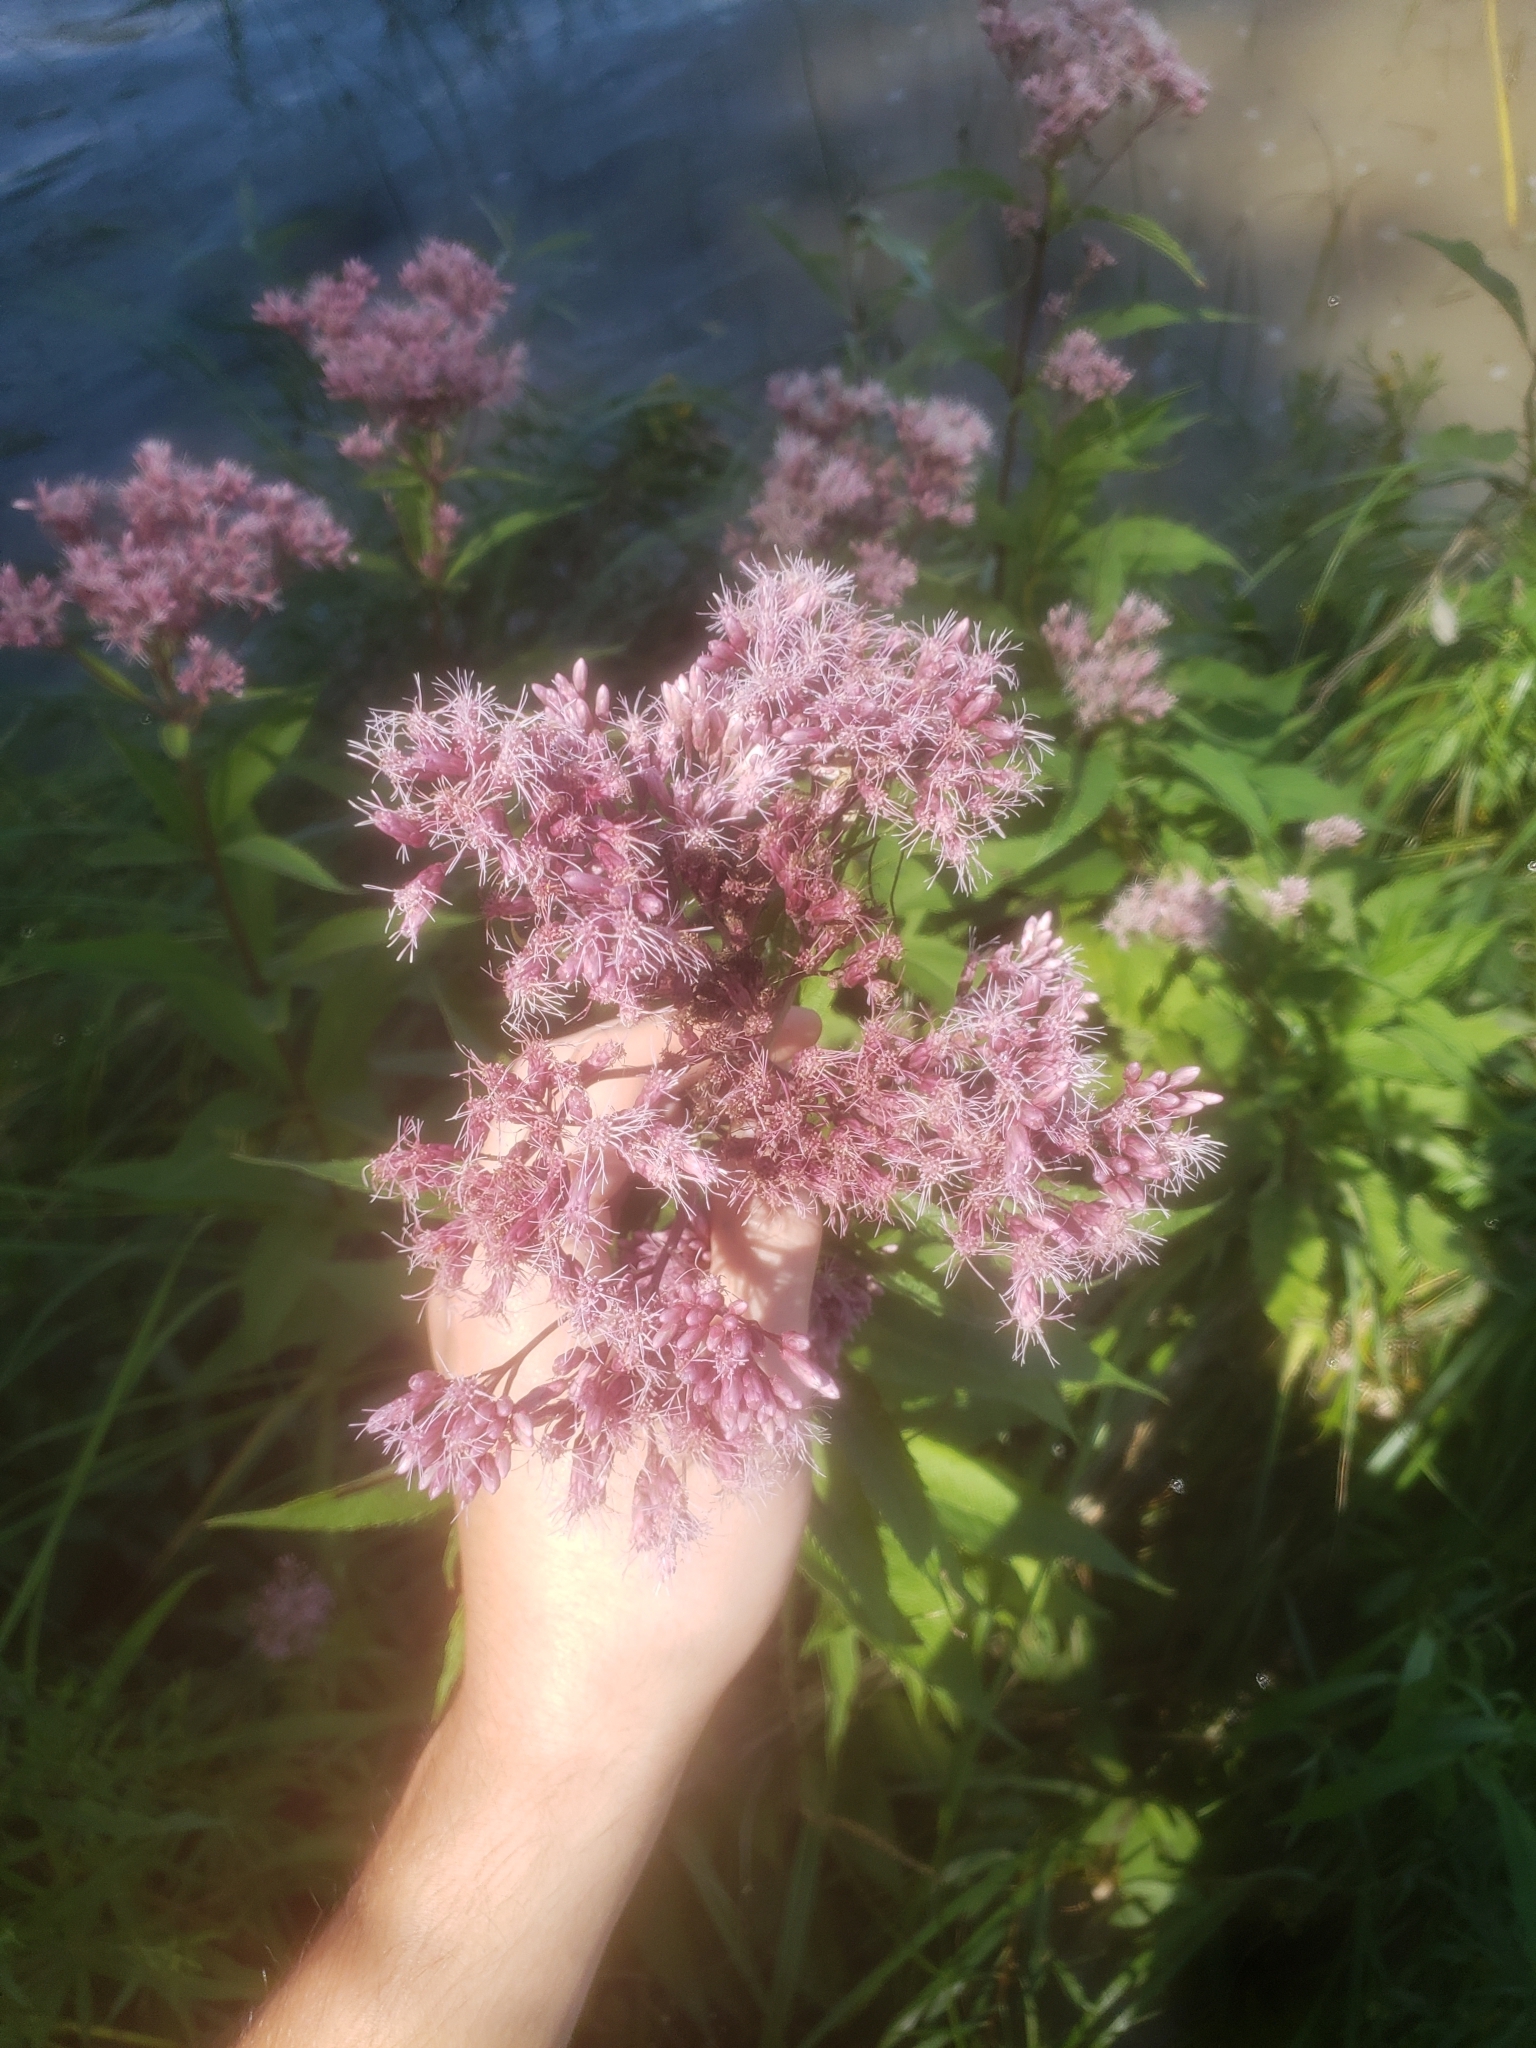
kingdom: Plantae
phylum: Tracheophyta
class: Magnoliopsida
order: Asterales
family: Asteraceae
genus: Eutrochium
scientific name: Eutrochium maculatum
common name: Spotted joe pye weed
